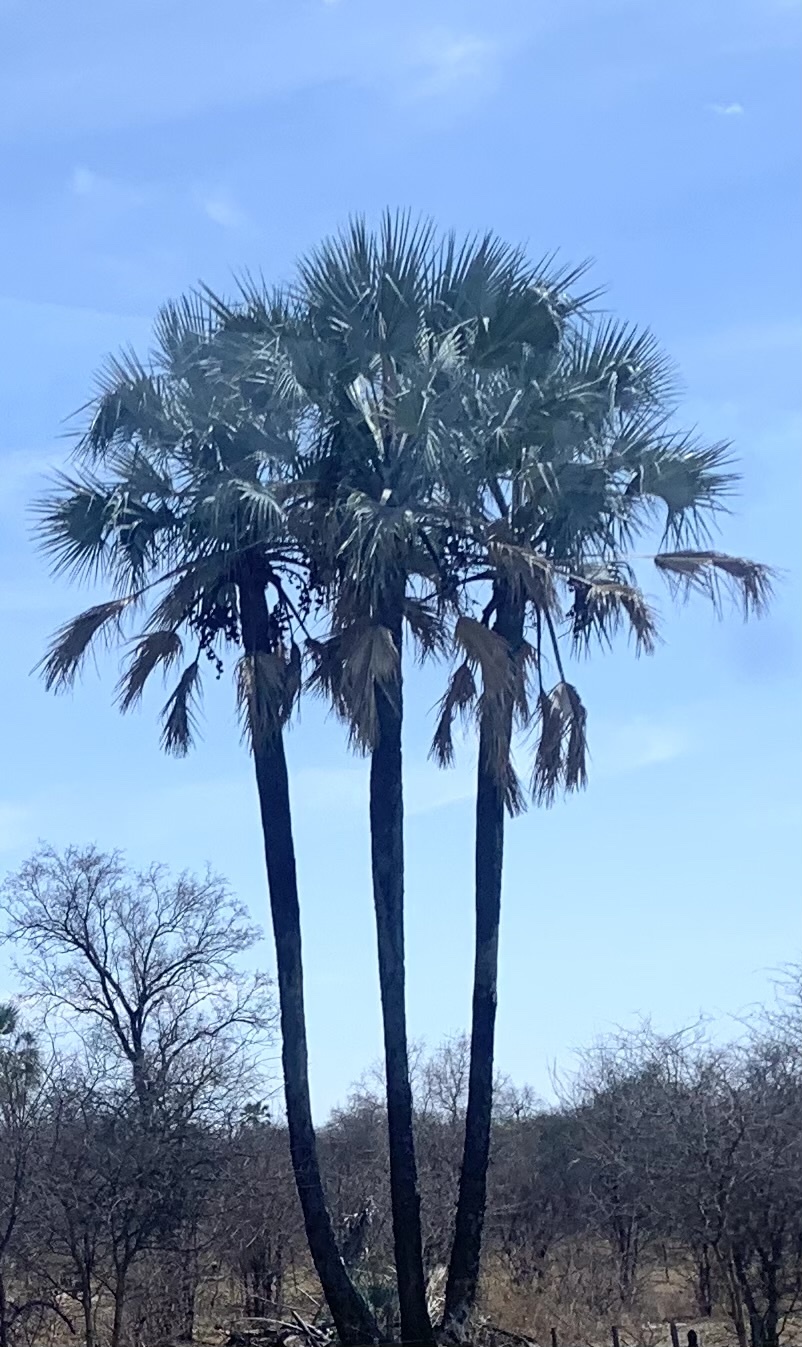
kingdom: Plantae
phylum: Tracheophyta
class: Liliopsida
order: Arecales
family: Arecaceae
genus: Hyphaene
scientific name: Hyphaene petersiana
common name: African ivory nut palm
